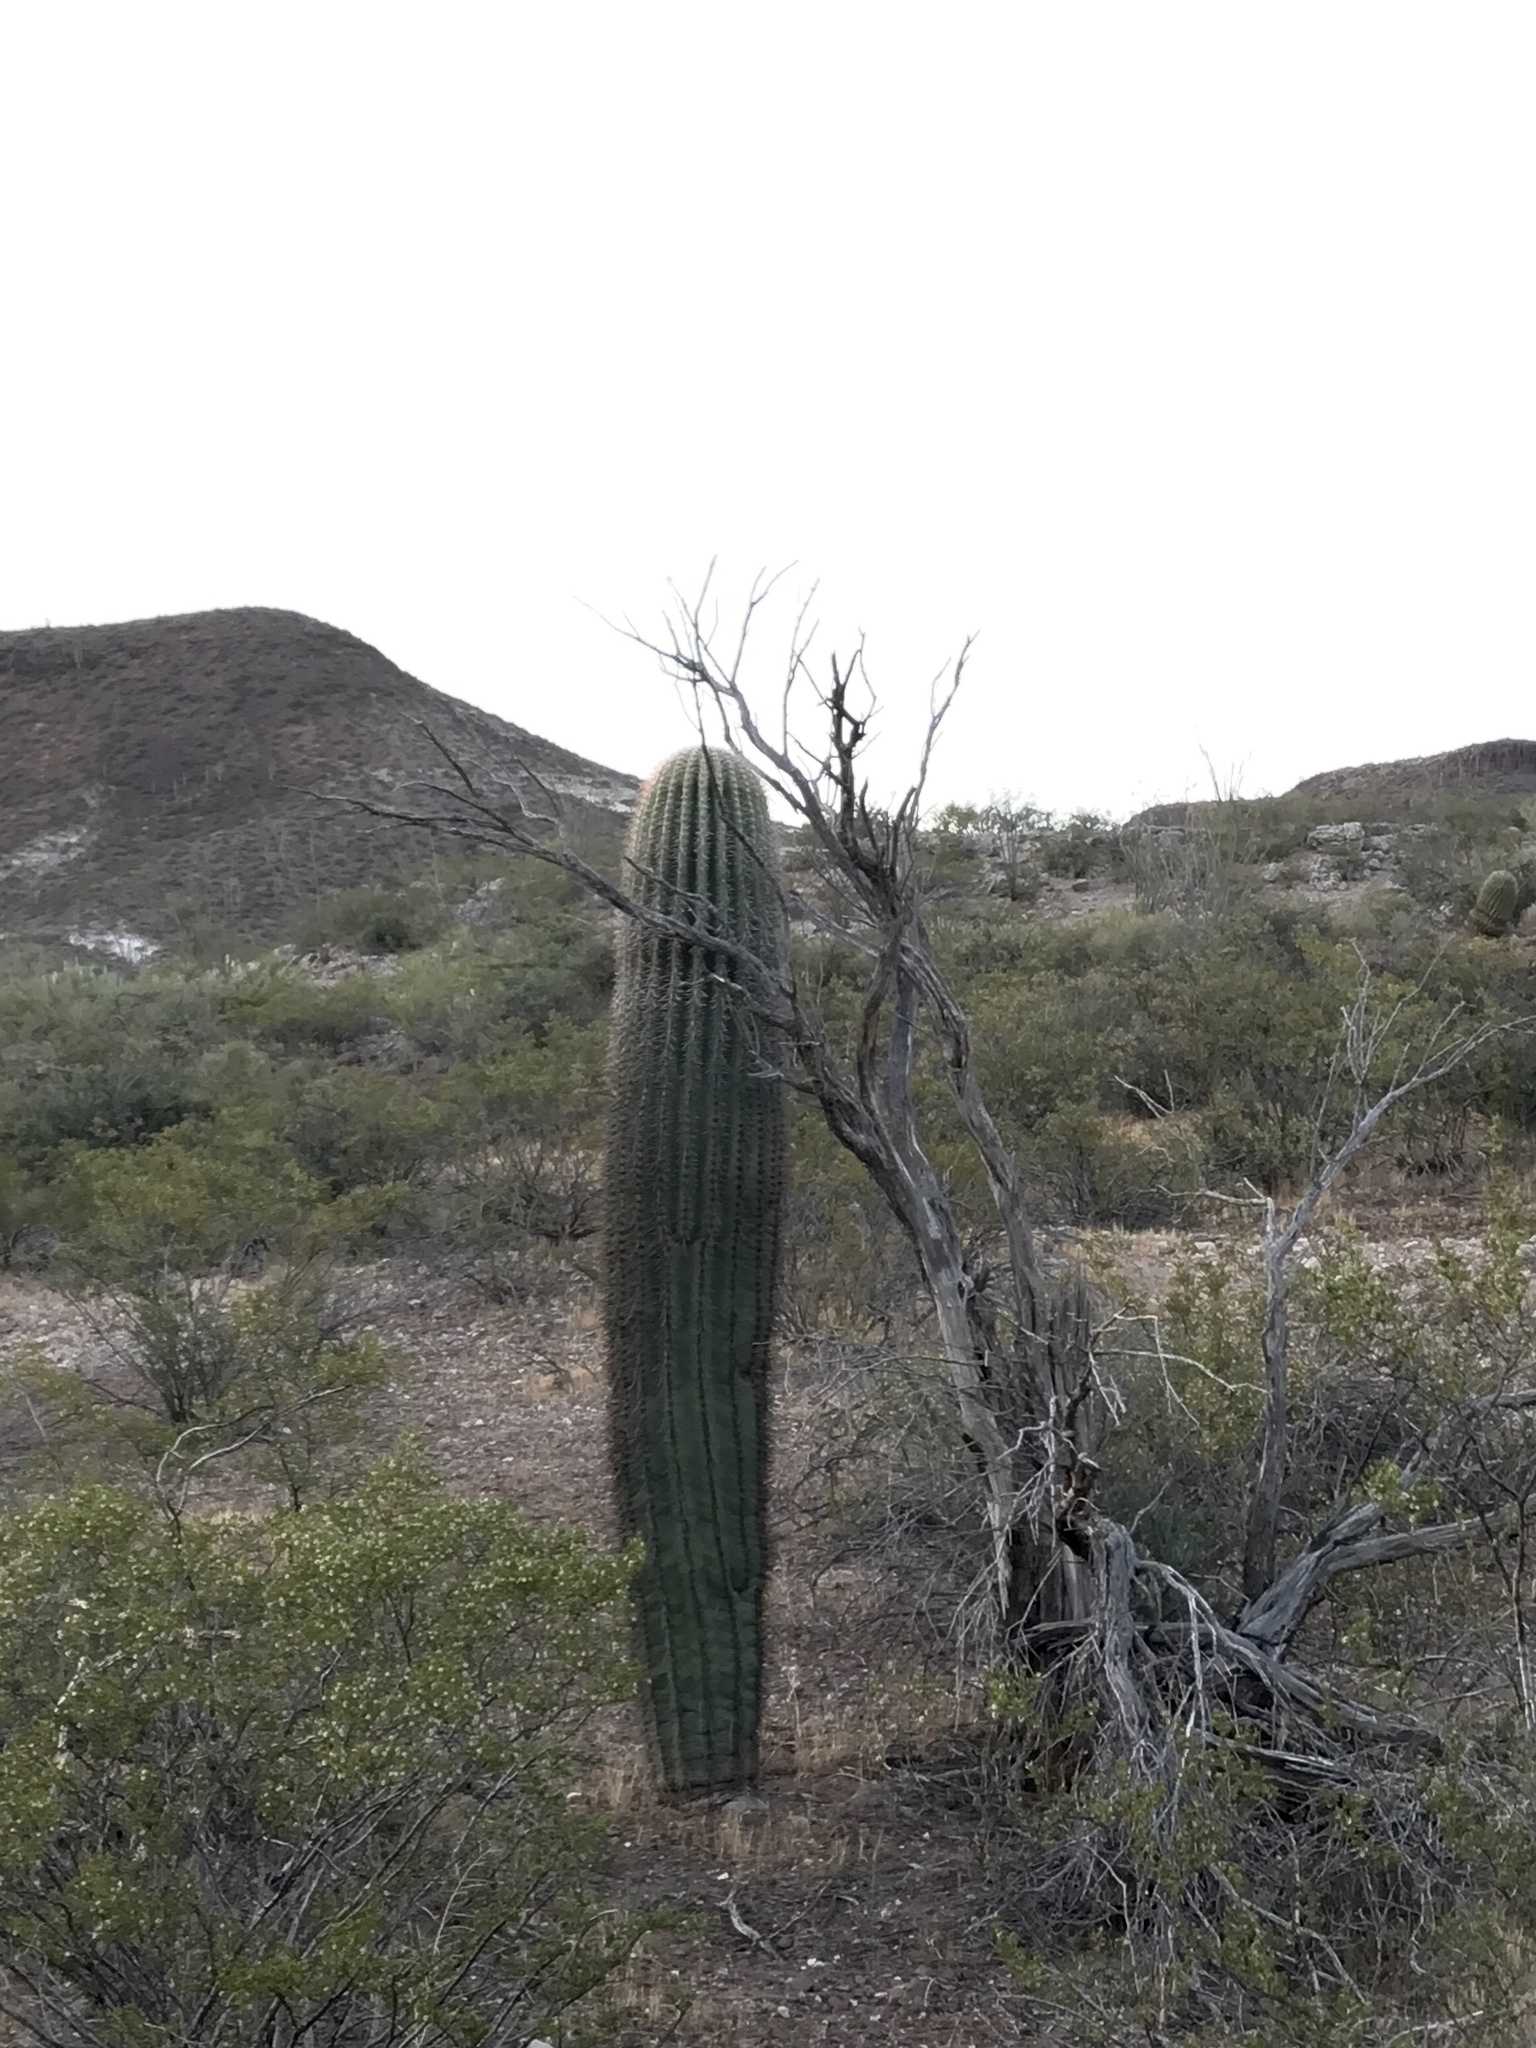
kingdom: Plantae
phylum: Tracheophyta
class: Magnoliopsida
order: Caryophyllales
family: Cactaceae
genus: Carnegiea
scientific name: Carnegiea gigantea
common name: Saguaro
